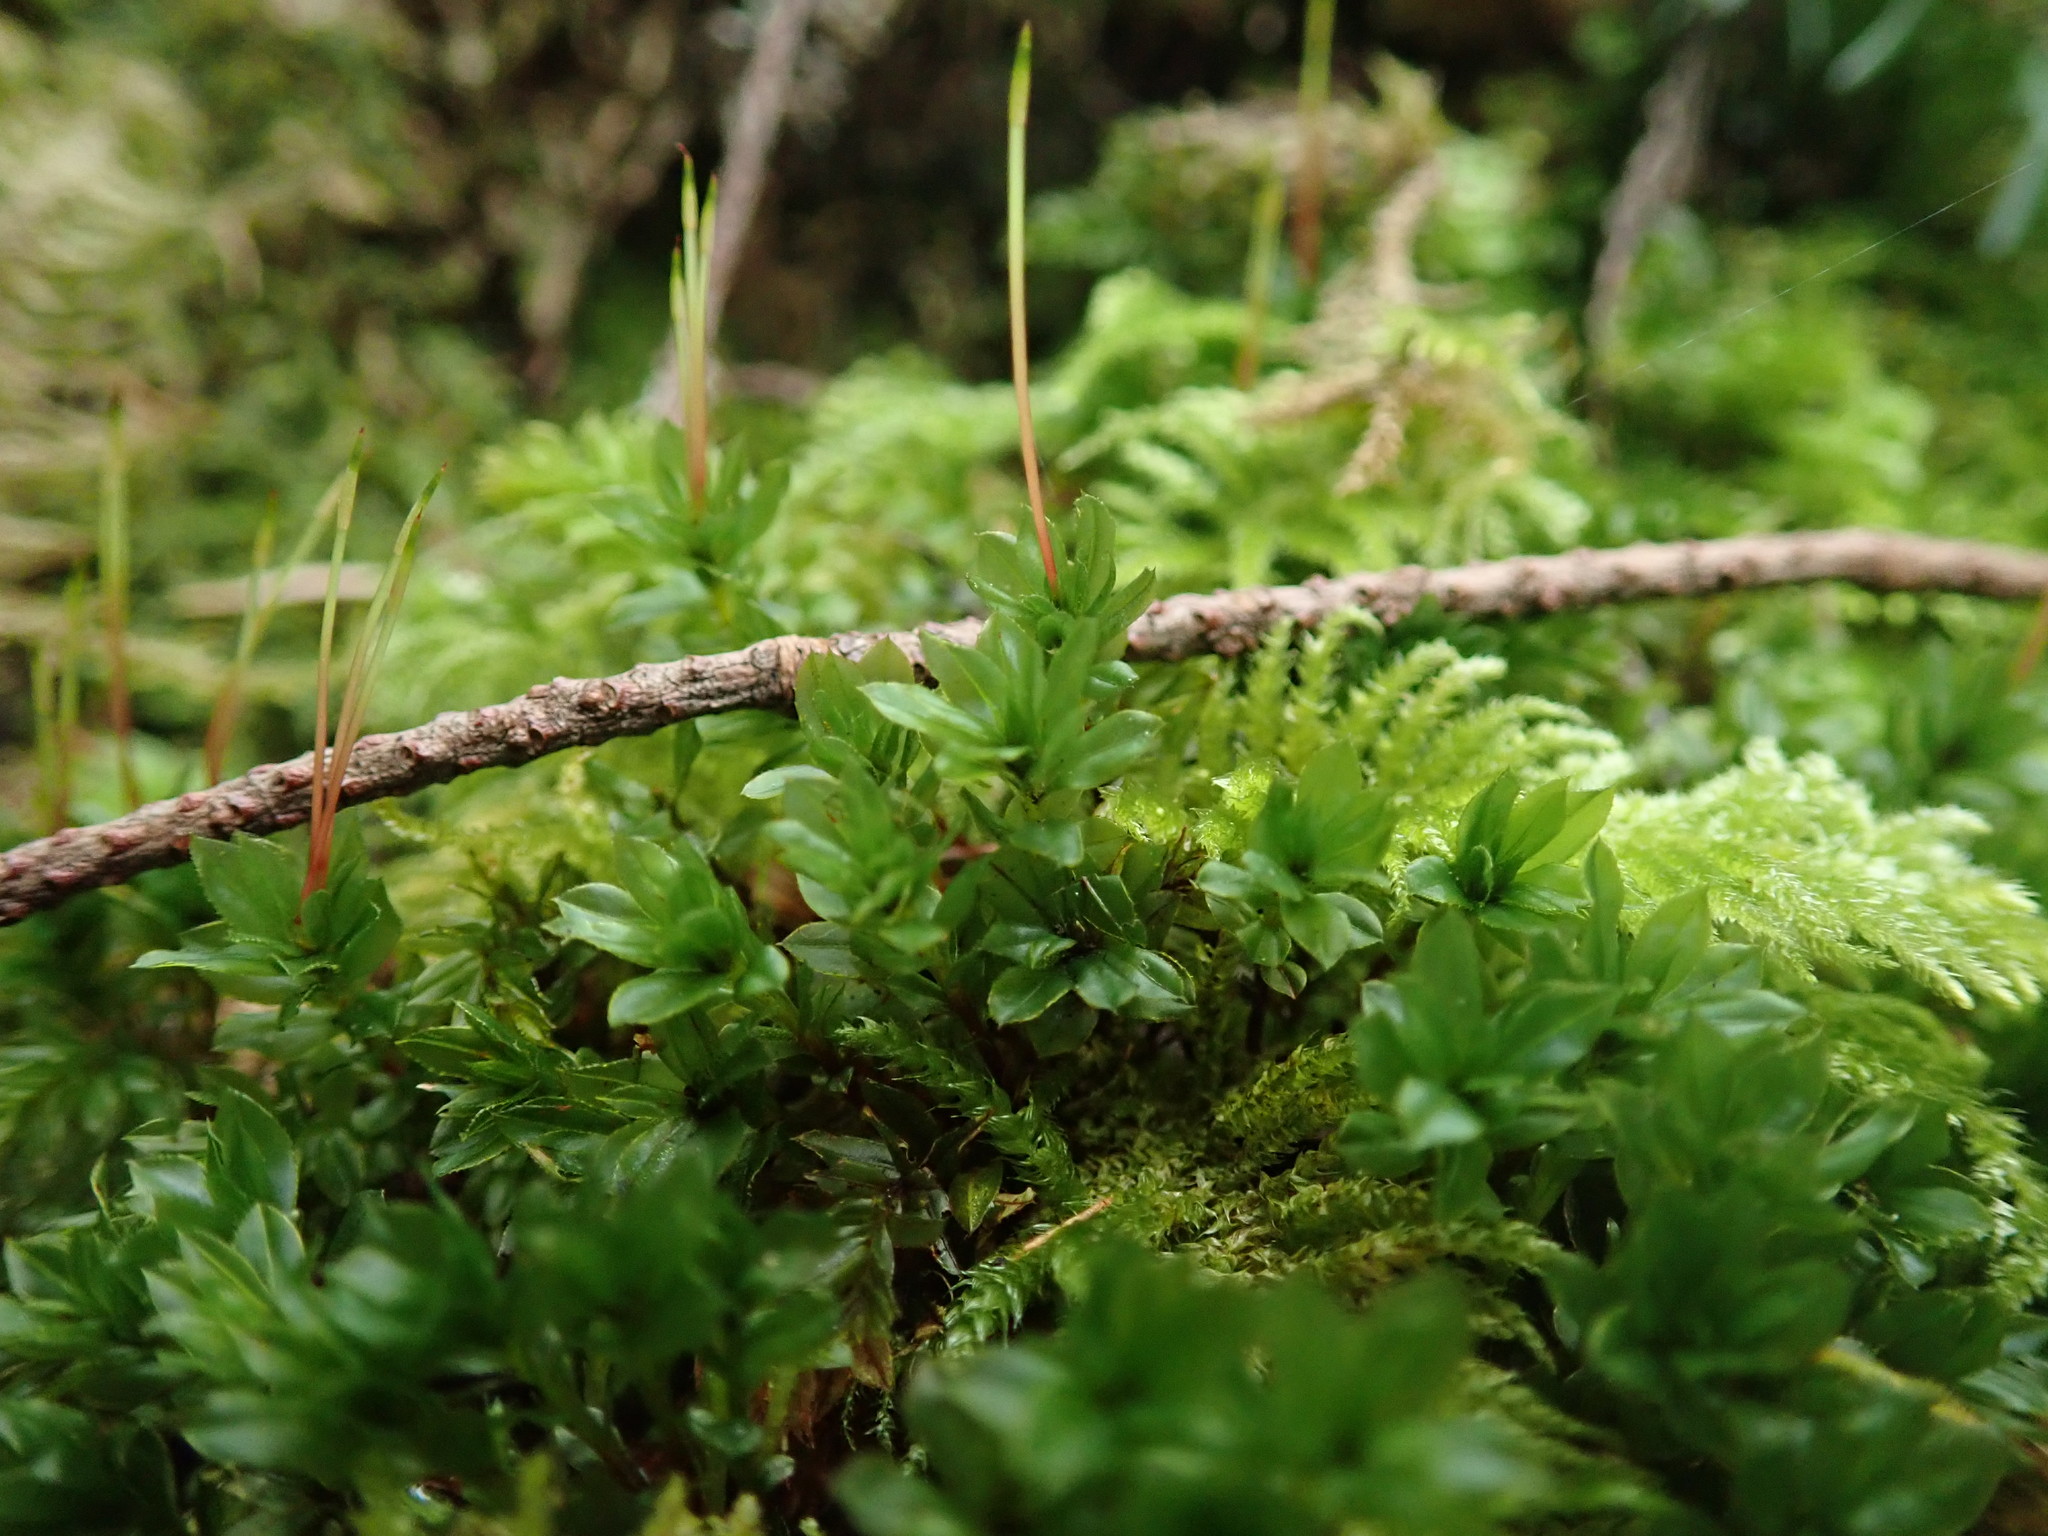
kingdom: Plantae
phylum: Bryophyta
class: Bryopsida
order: Bryales
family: Mniaceae
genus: Mnium
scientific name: Mnium spinulosum
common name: Red-mouthed leafy moss
